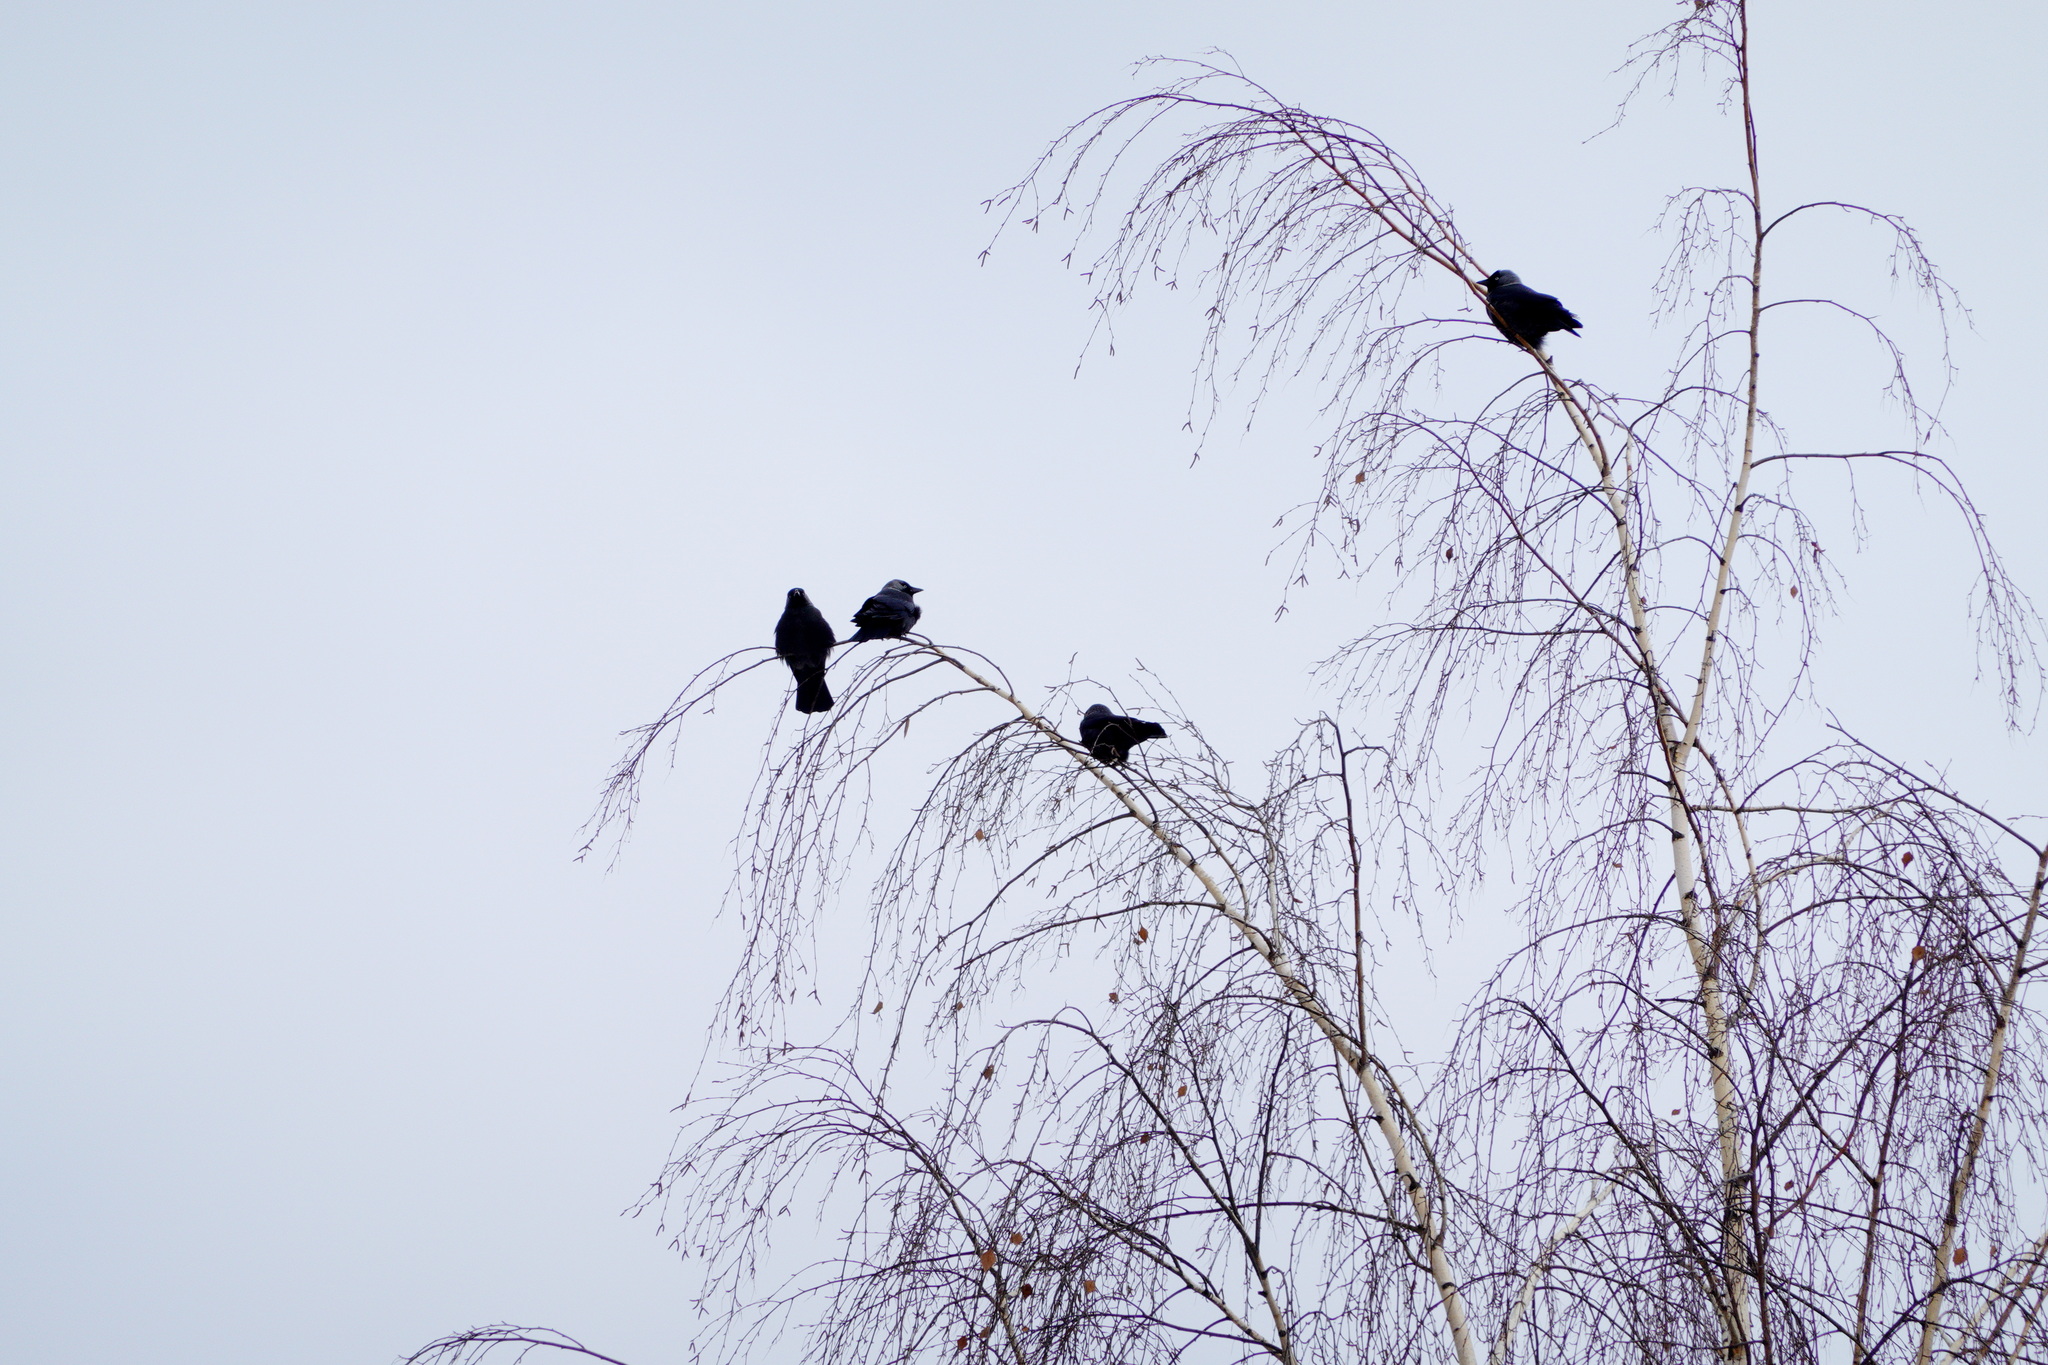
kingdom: Animalia
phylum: Chordata
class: Aves
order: Passeriformes
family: Corvidae
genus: Coloeus
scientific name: Coloeus monedula
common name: Western jackdaw
